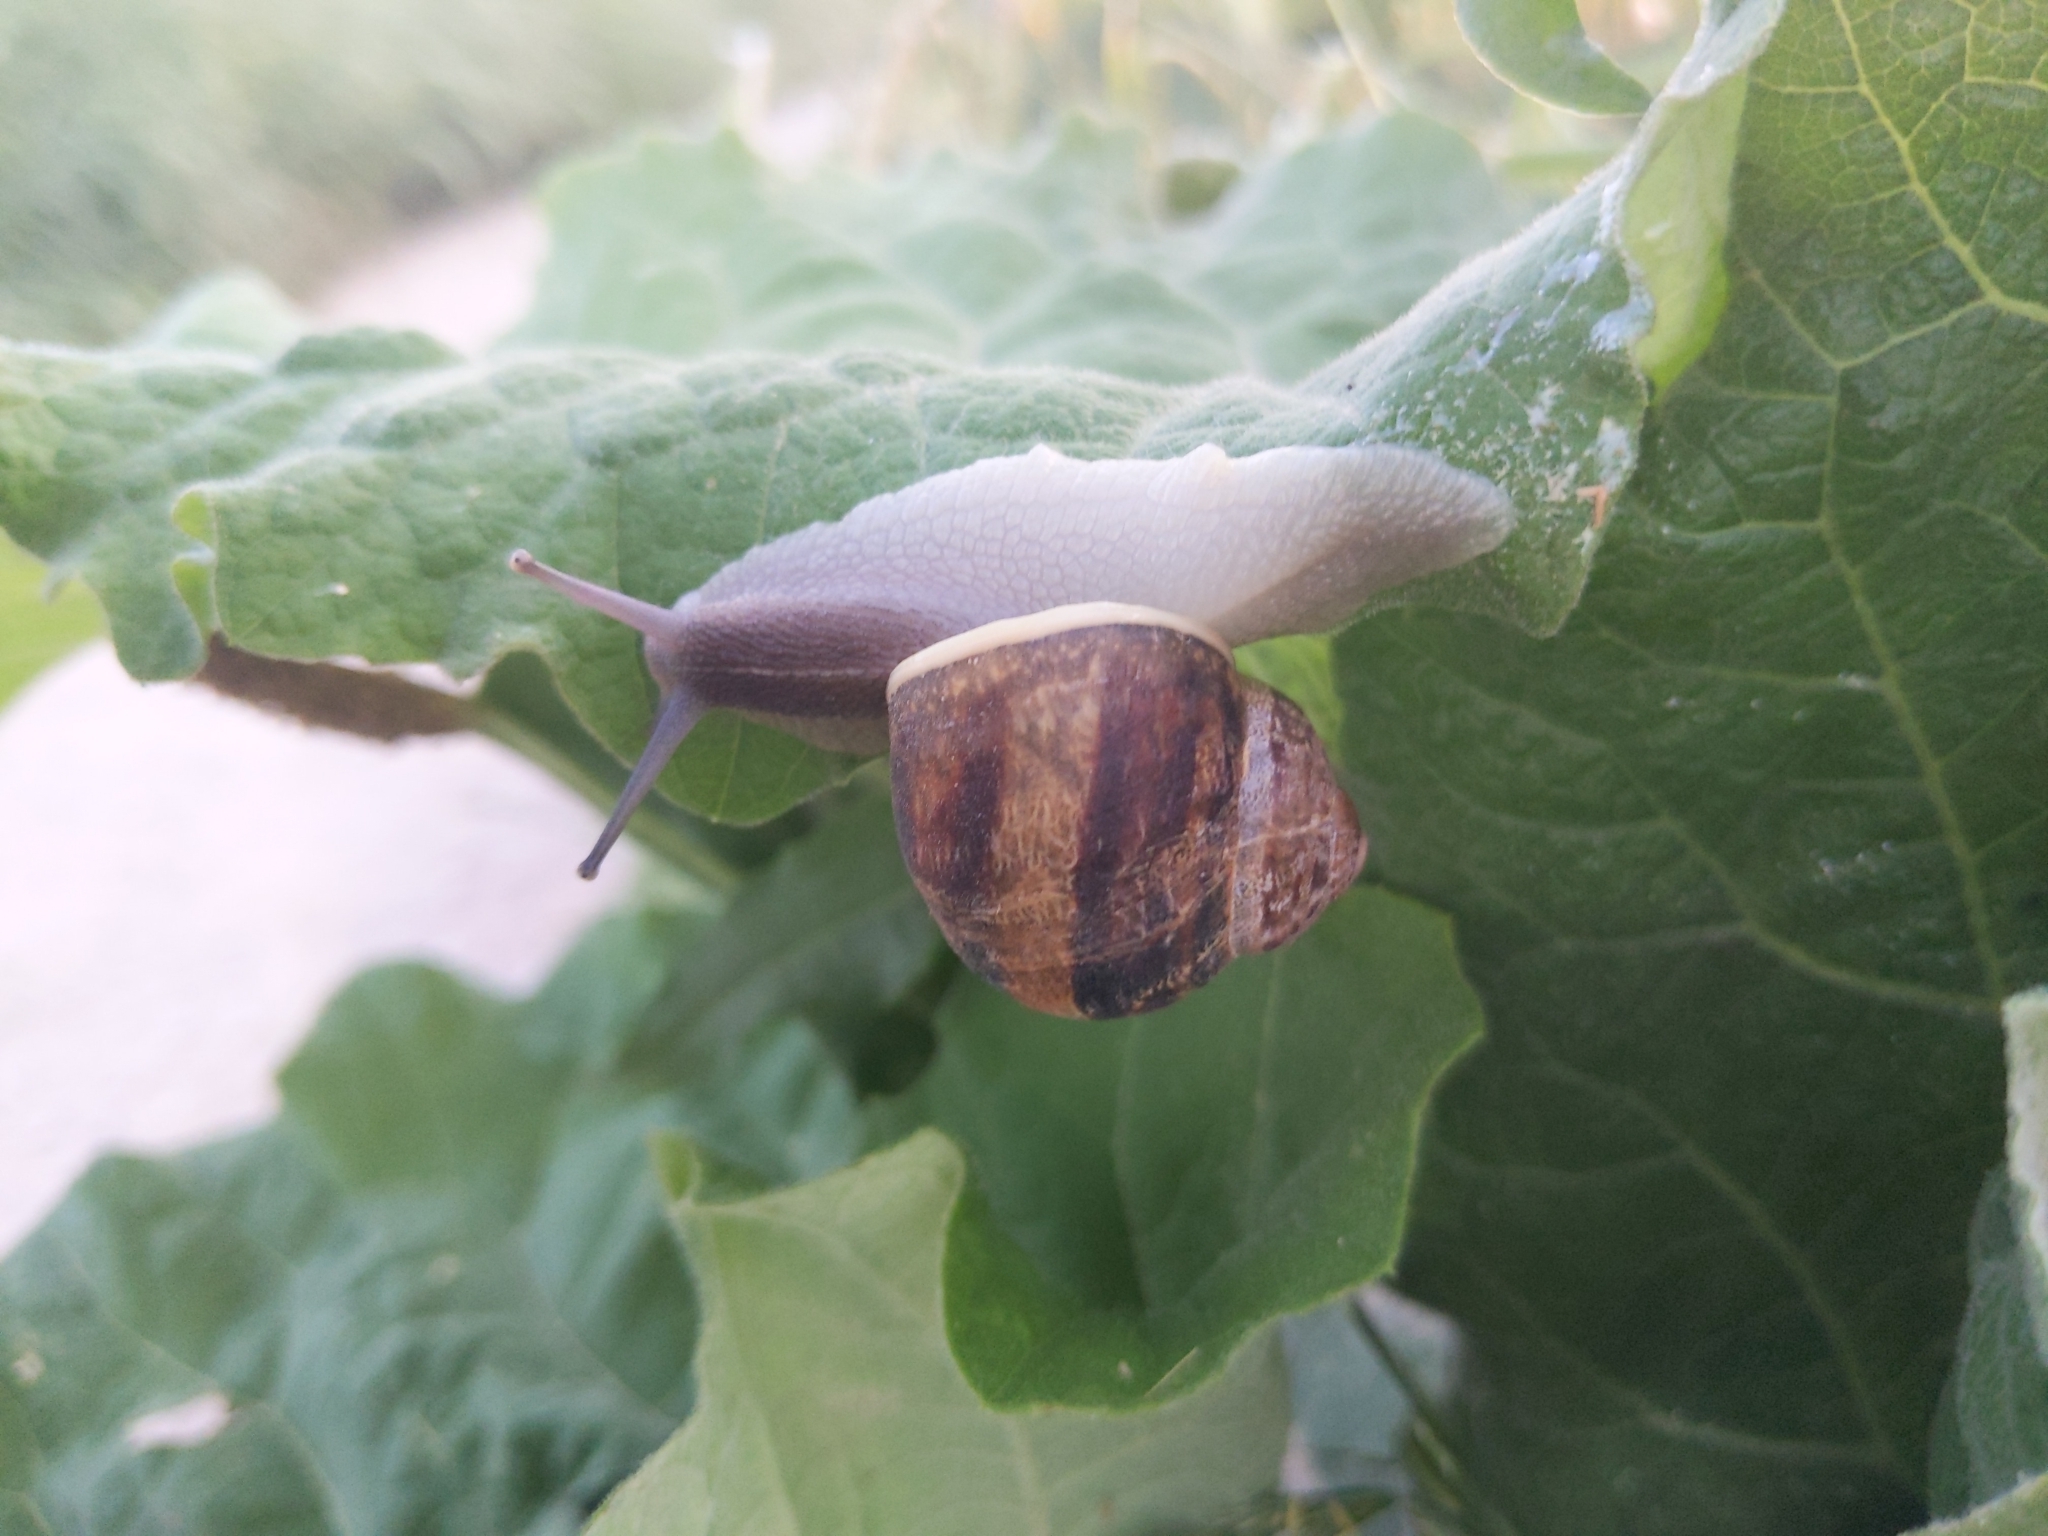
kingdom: Animalia
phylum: Mollusca
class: Gastropoda
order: Stylommatophora
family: Helicidae
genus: Cornu
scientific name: Cornu aspersum
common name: Brown garden snail
